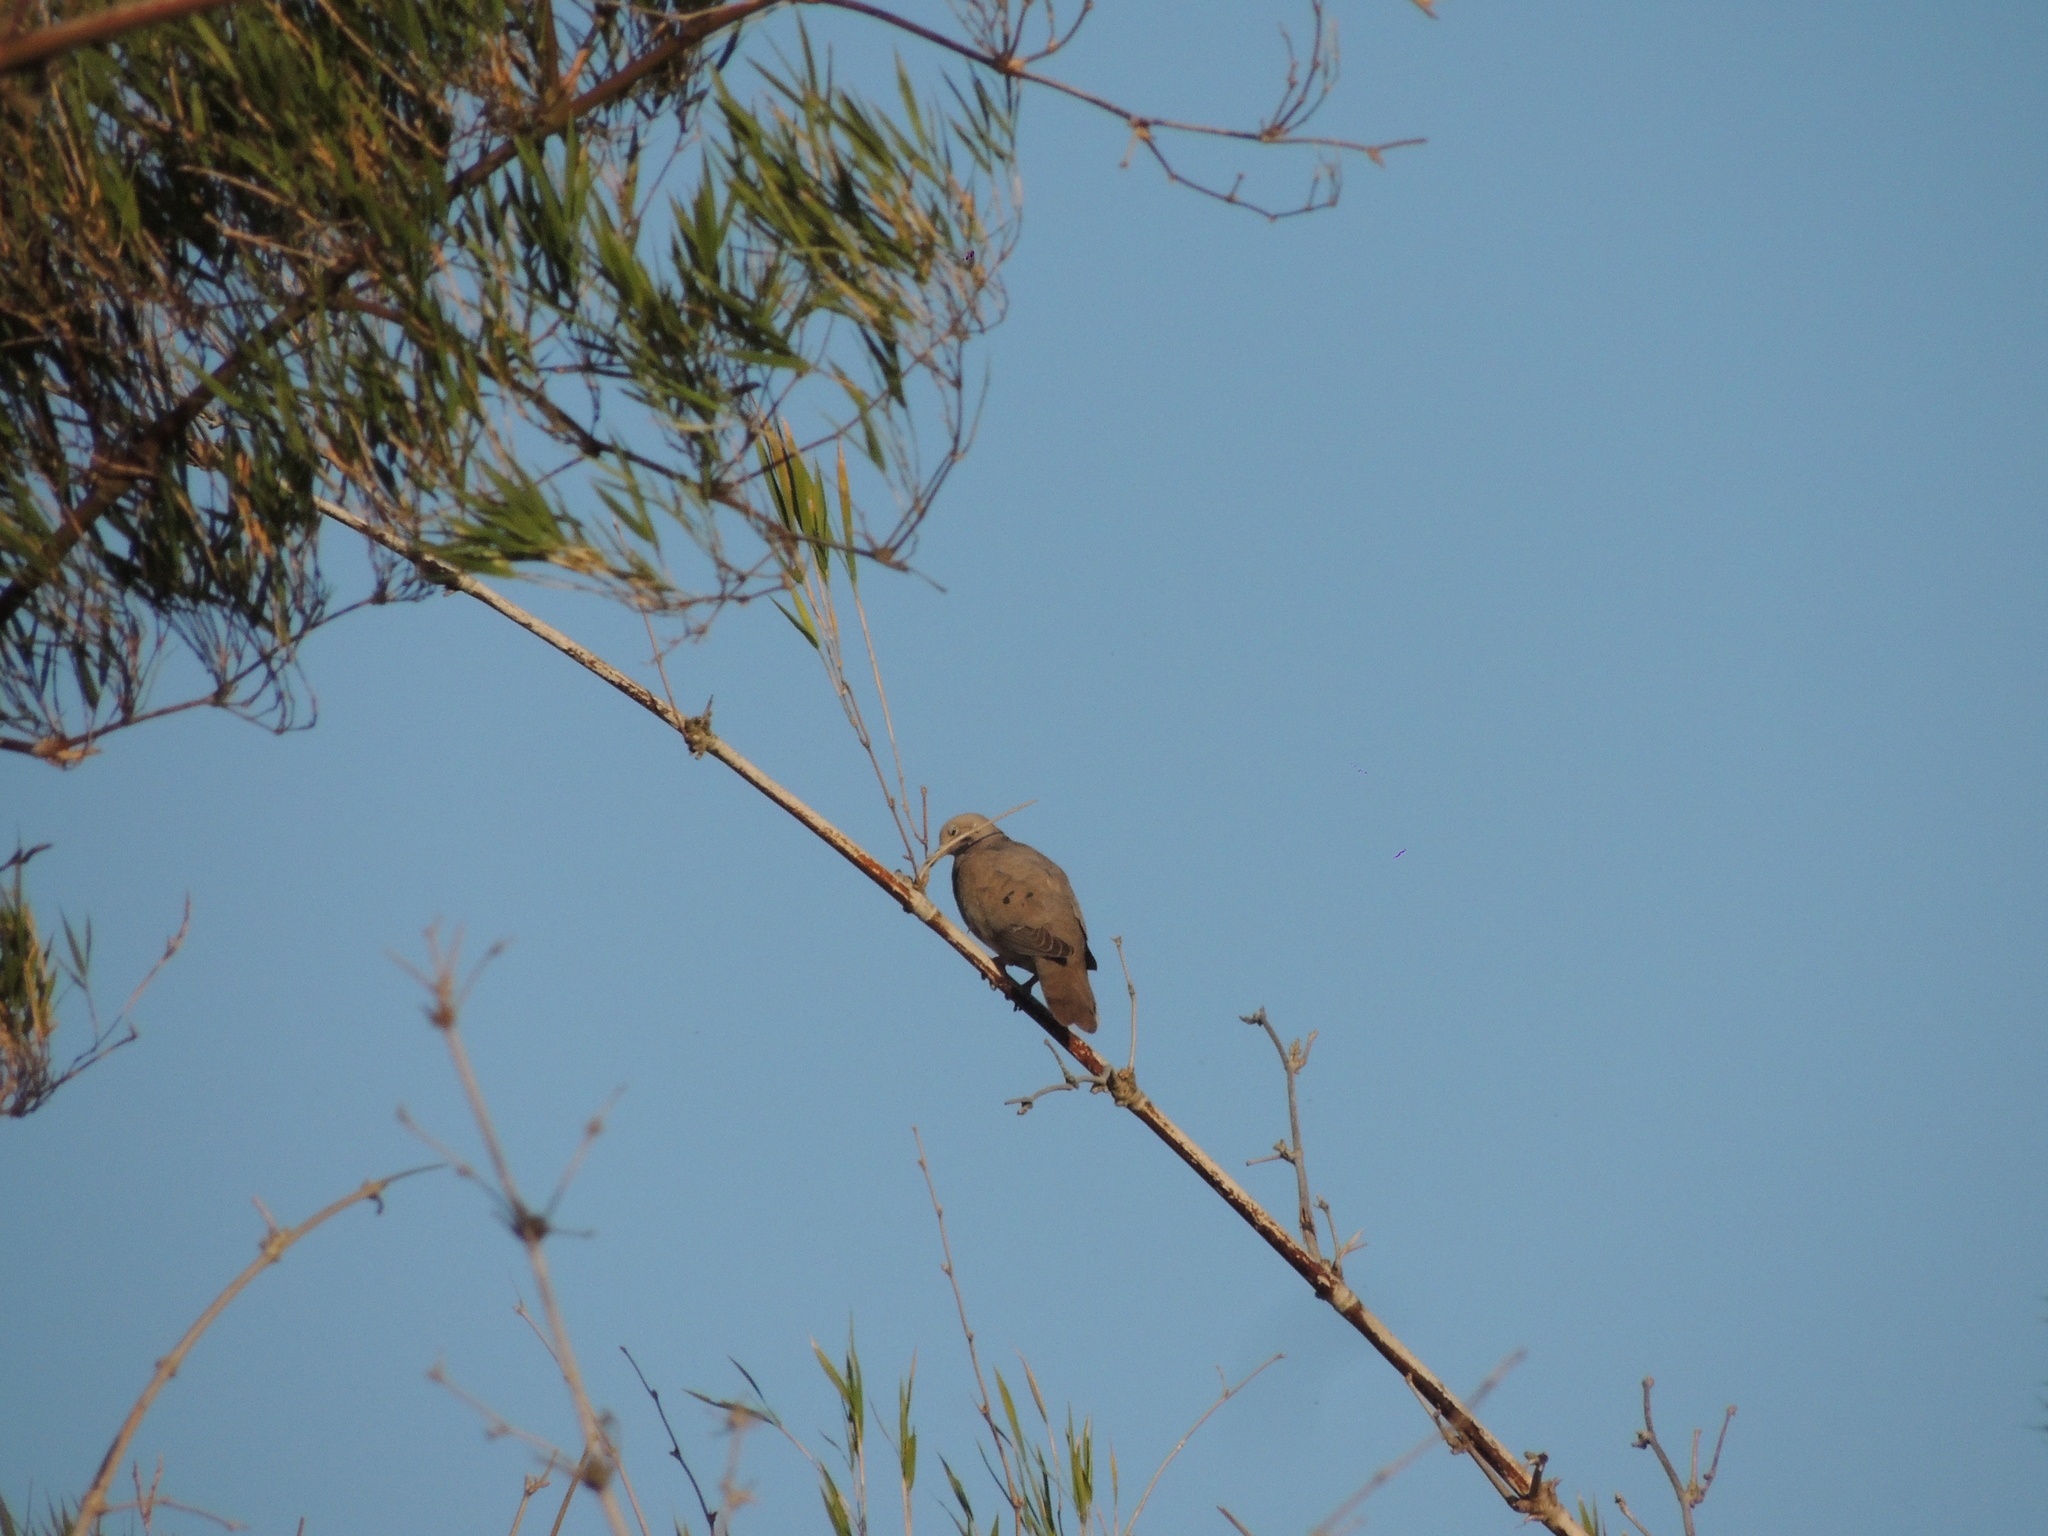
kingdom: Animalia
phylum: Chordata
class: Aves
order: Columbiformes
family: Columbidae
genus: Zenaida
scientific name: Zenaida auriculata
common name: Eared dove
